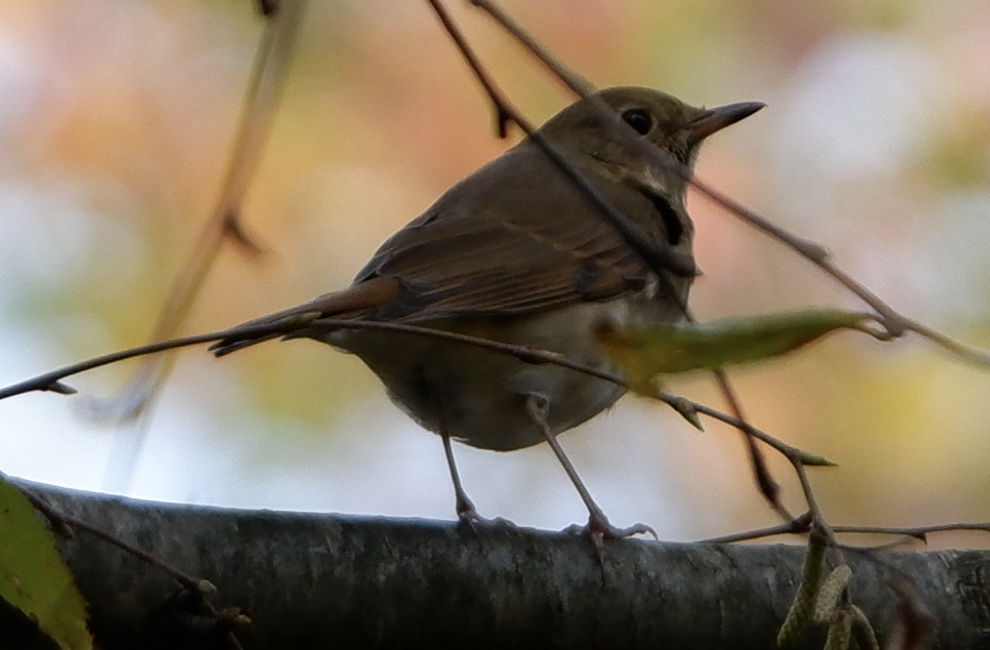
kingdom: Animalia
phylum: Chordata
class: Aves
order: Passeriformes
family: Turdidae
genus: Catharus
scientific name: Catharus guttatus
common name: Hermit thrush
